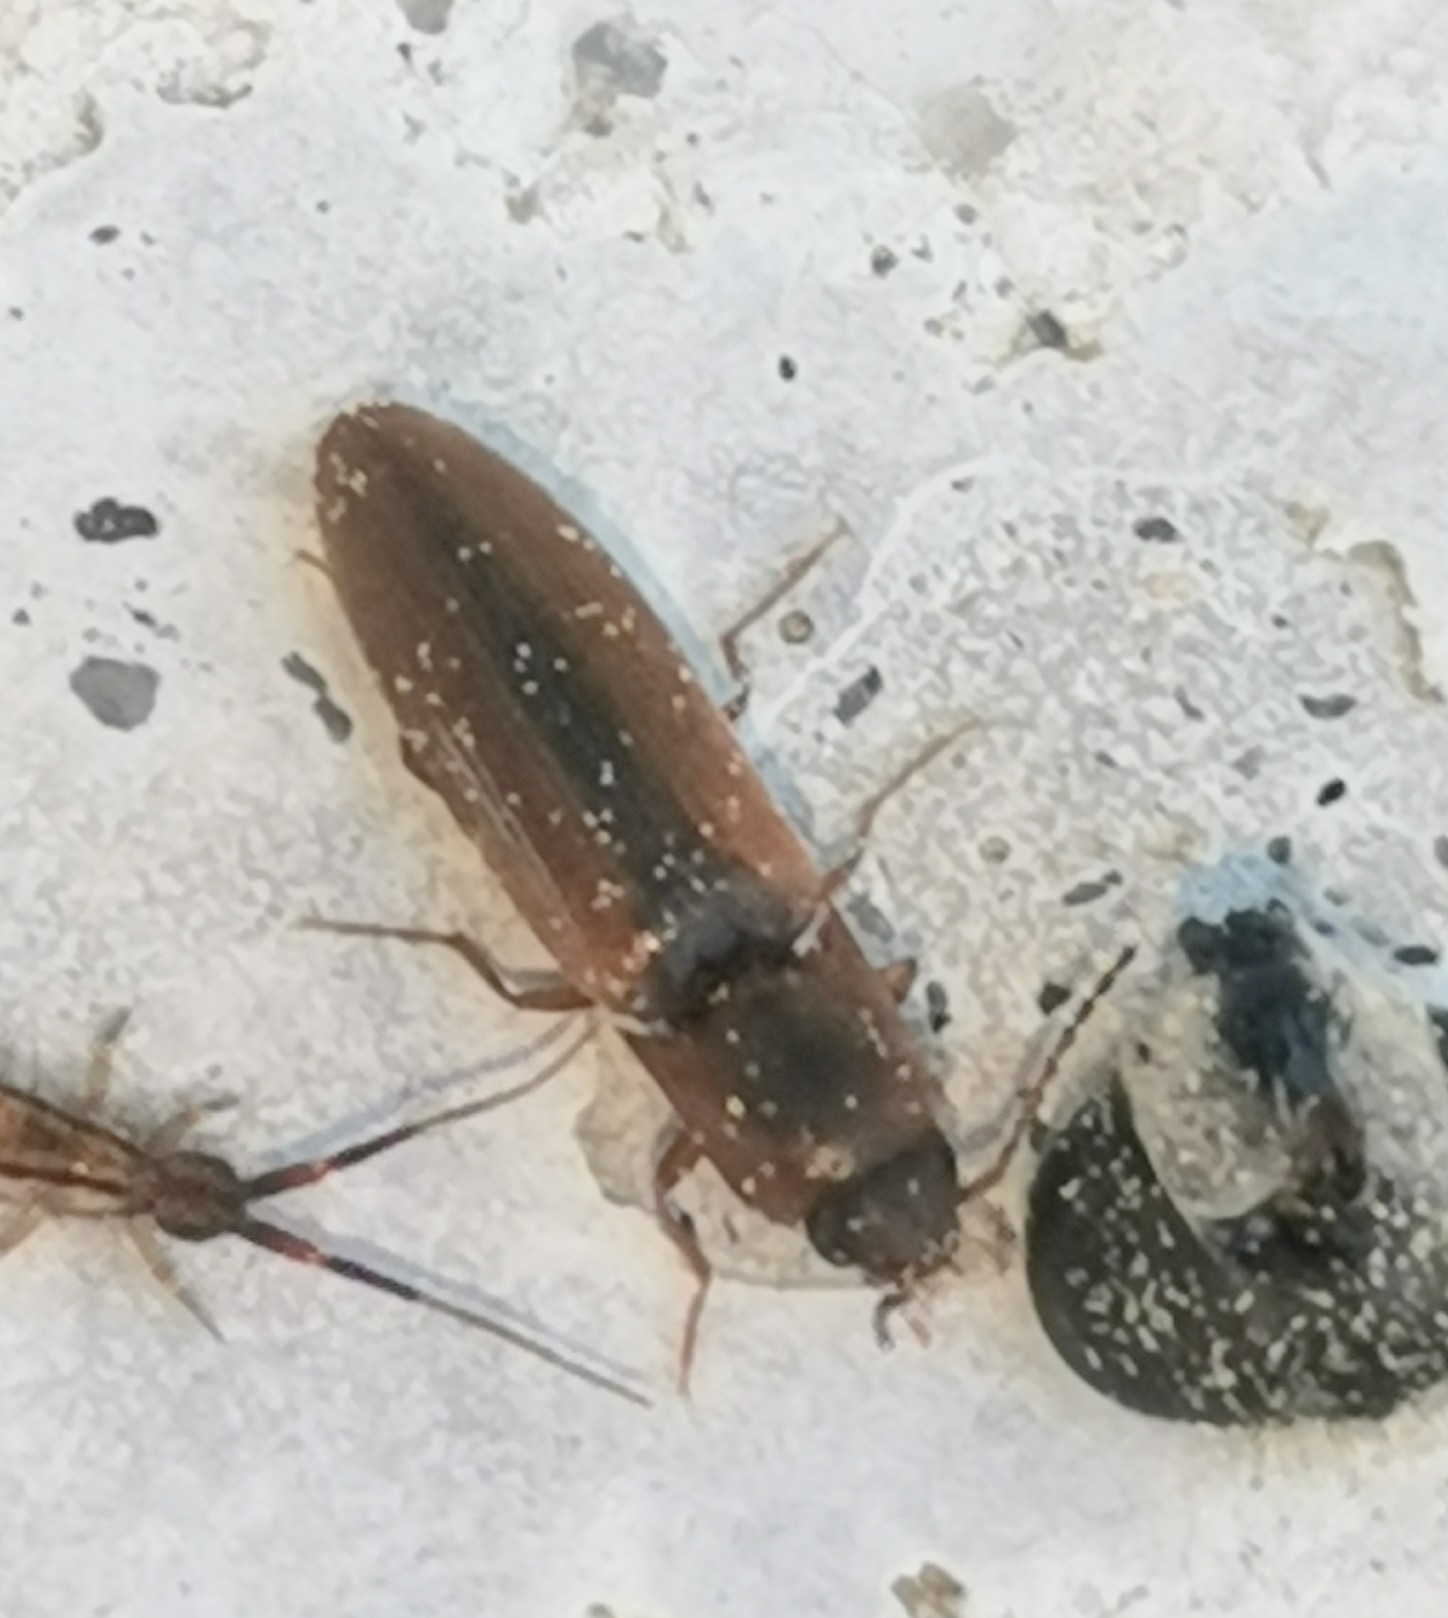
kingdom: Animalia
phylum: Arthropoda
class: Insecta
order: Coleoptera
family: Elateridae
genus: Dalopius
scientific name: Dalopius marginatus
